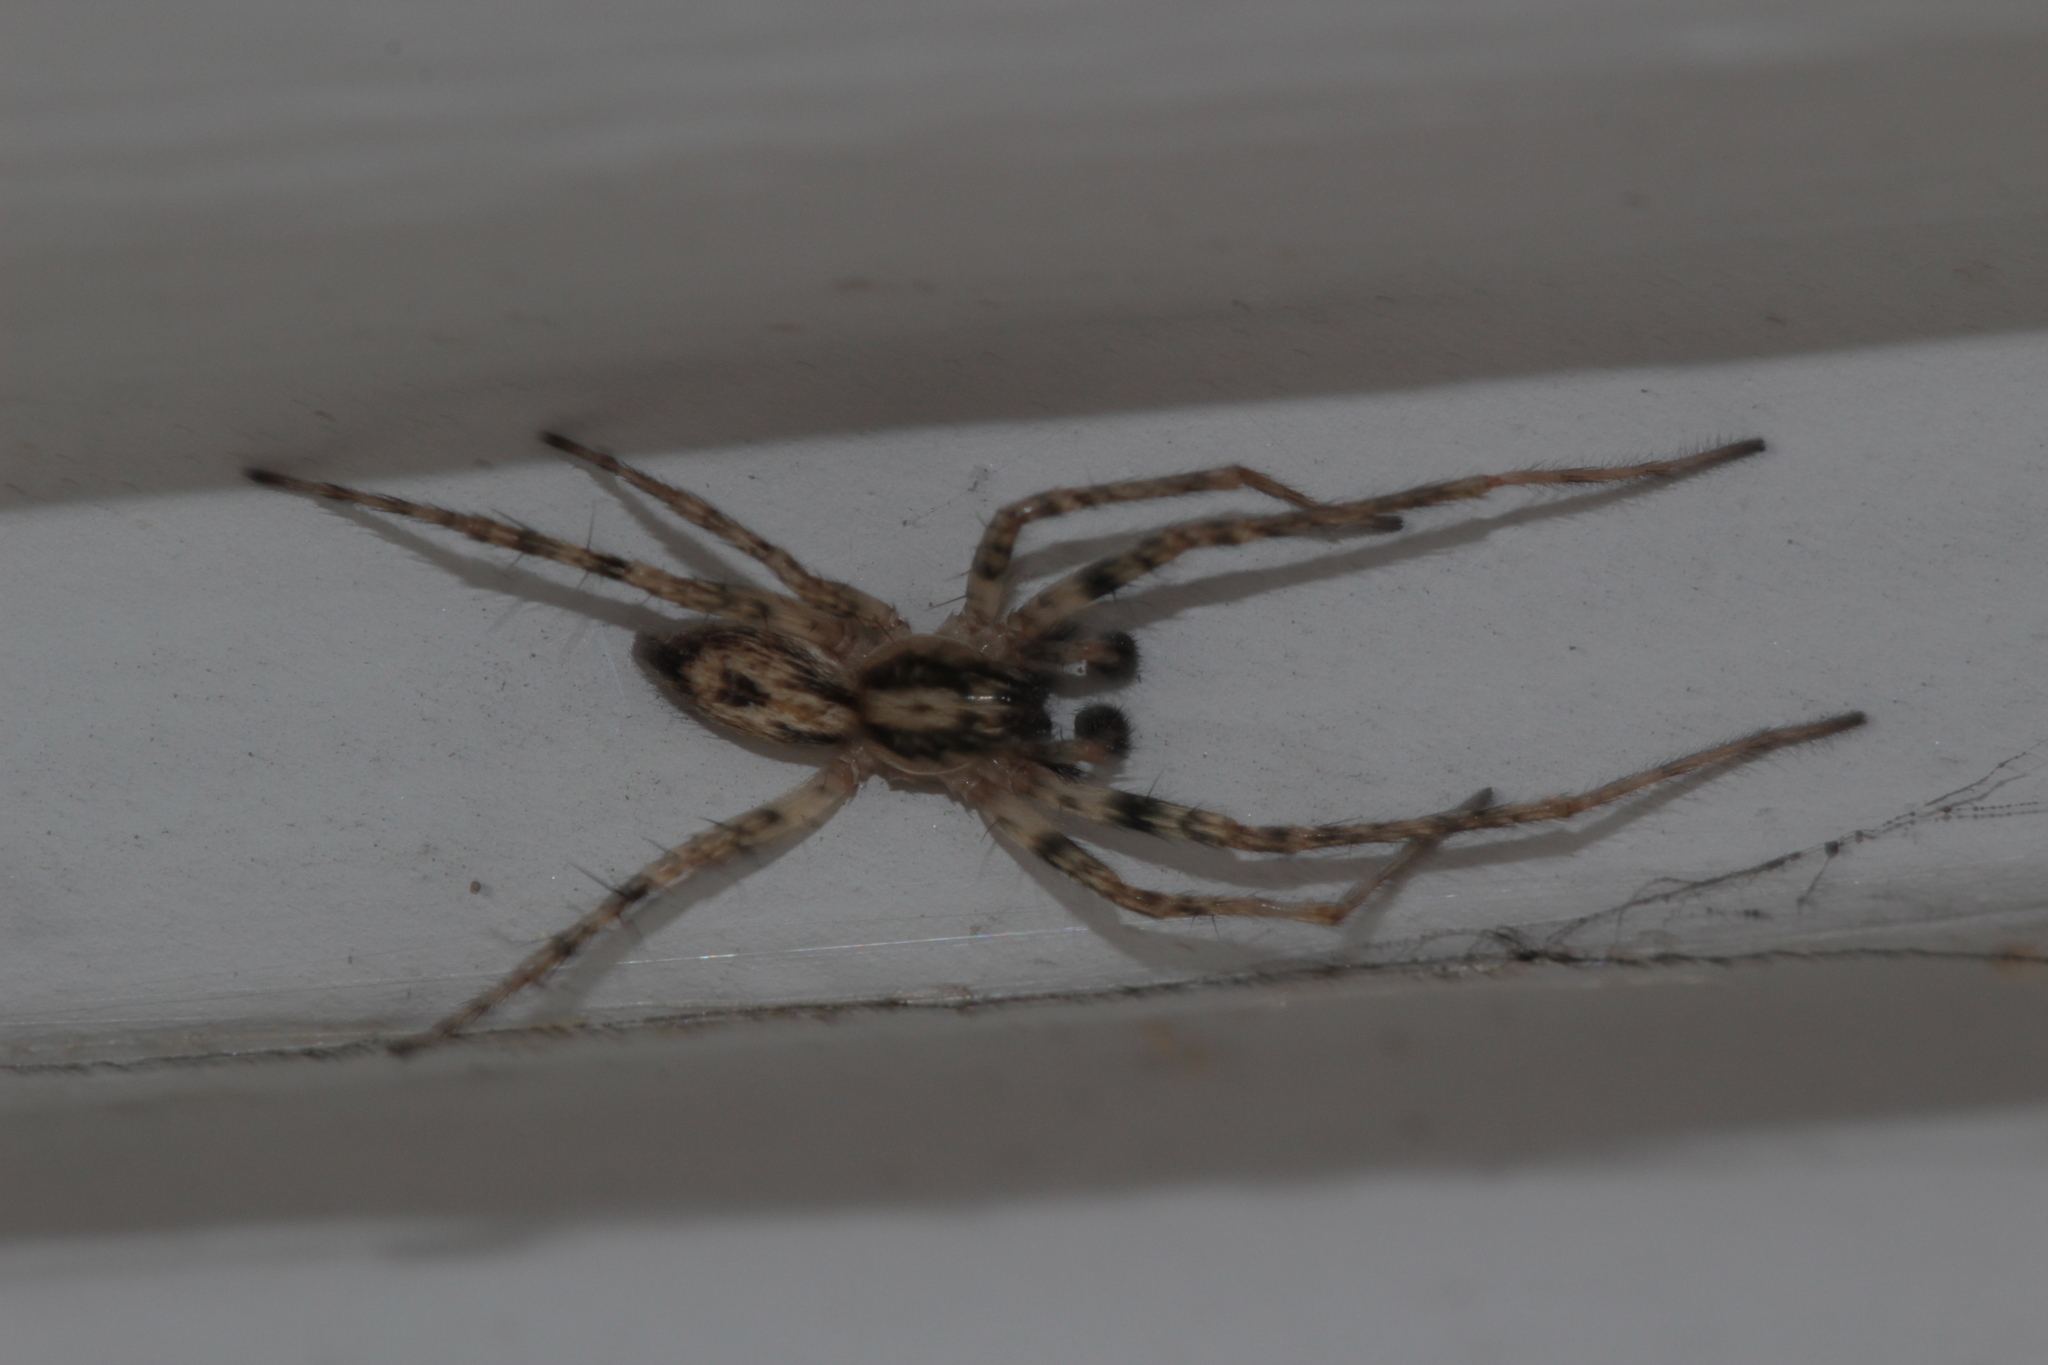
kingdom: Animalia
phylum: Arthropoda
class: Arachnida
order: Araneae
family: Anyphaenidae
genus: Anyphaena
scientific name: Anyphaena accentuata
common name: Buzzing spider
